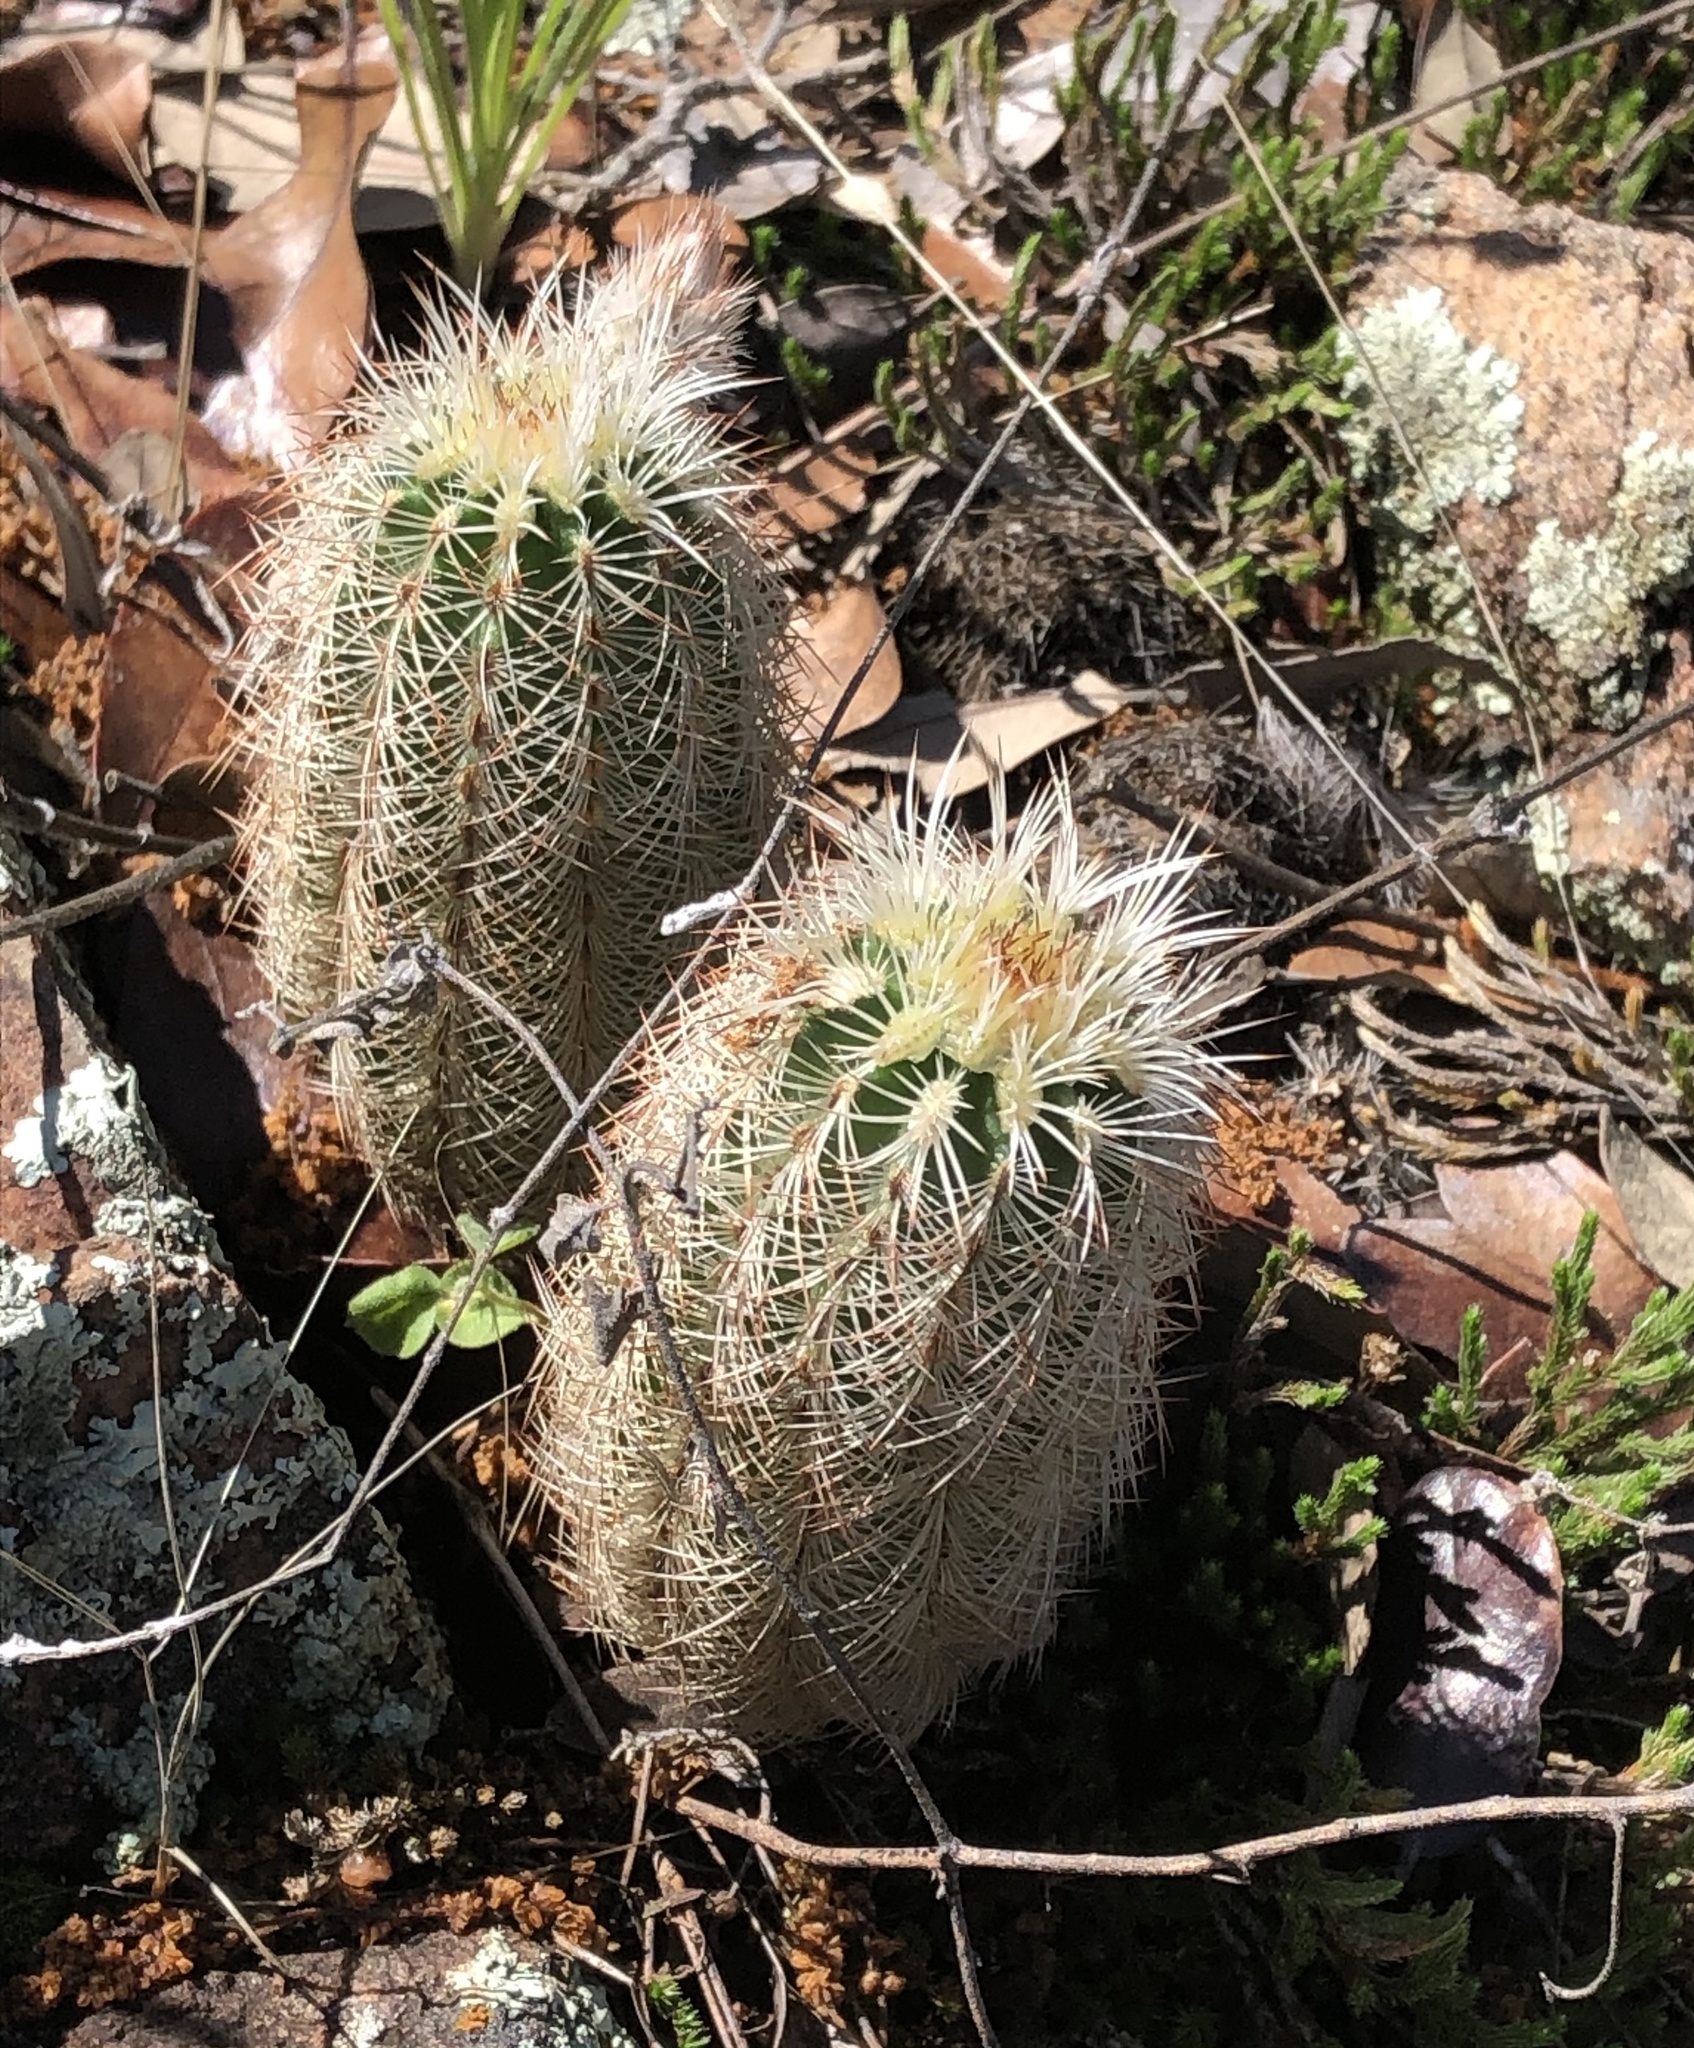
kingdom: Plantae
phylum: Tracheophyta
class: Magnoliopsida
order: Caryophyllales
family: Cactaceae
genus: Echinocereus
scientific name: Echinocereus reichenbachii
